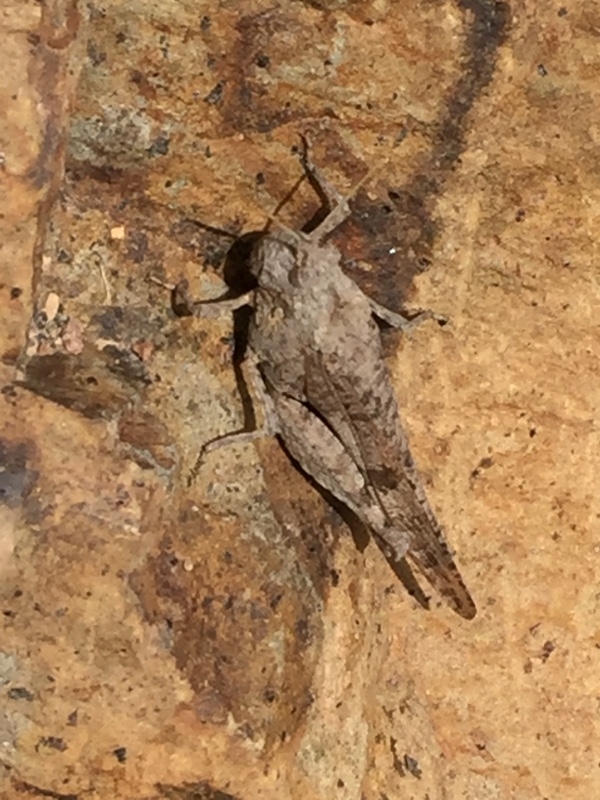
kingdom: Animalia
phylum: Arthropoda
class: Insecta
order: Orthoptera
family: Acrididae
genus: Oedipoda
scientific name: Oedipoda canariensis
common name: Canarian band-winged grasshopper
